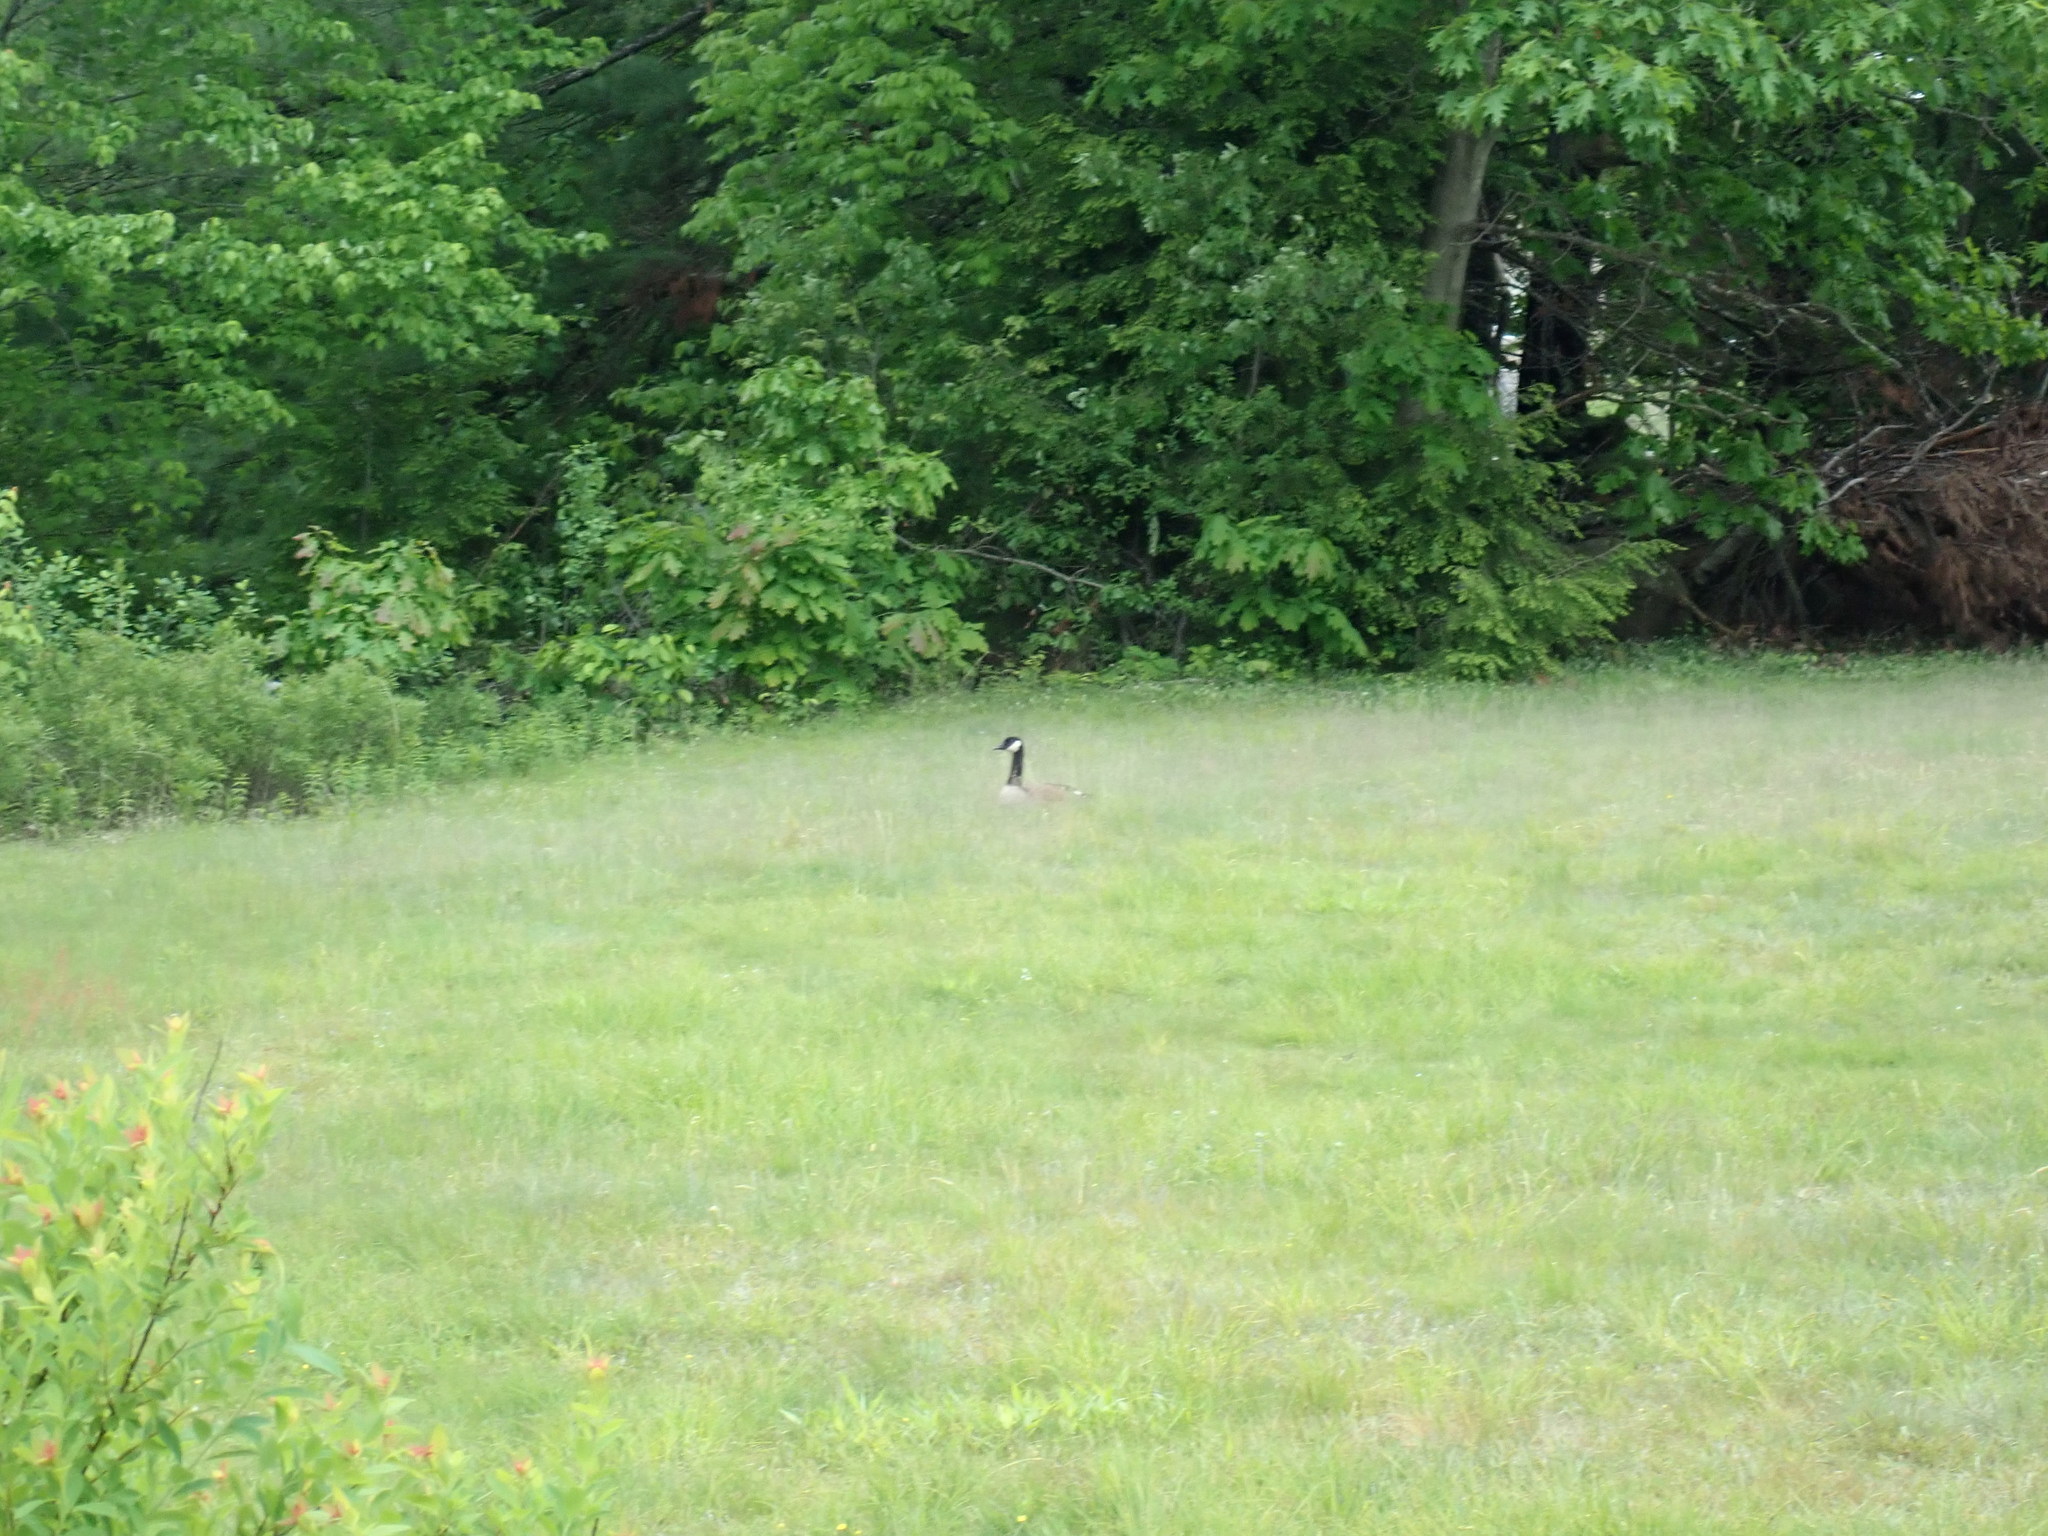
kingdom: Animalia
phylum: Chordata
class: Aves
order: Anseriformes
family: Anatidae
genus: Branta
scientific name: Branta canadensis
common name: Canada goose
